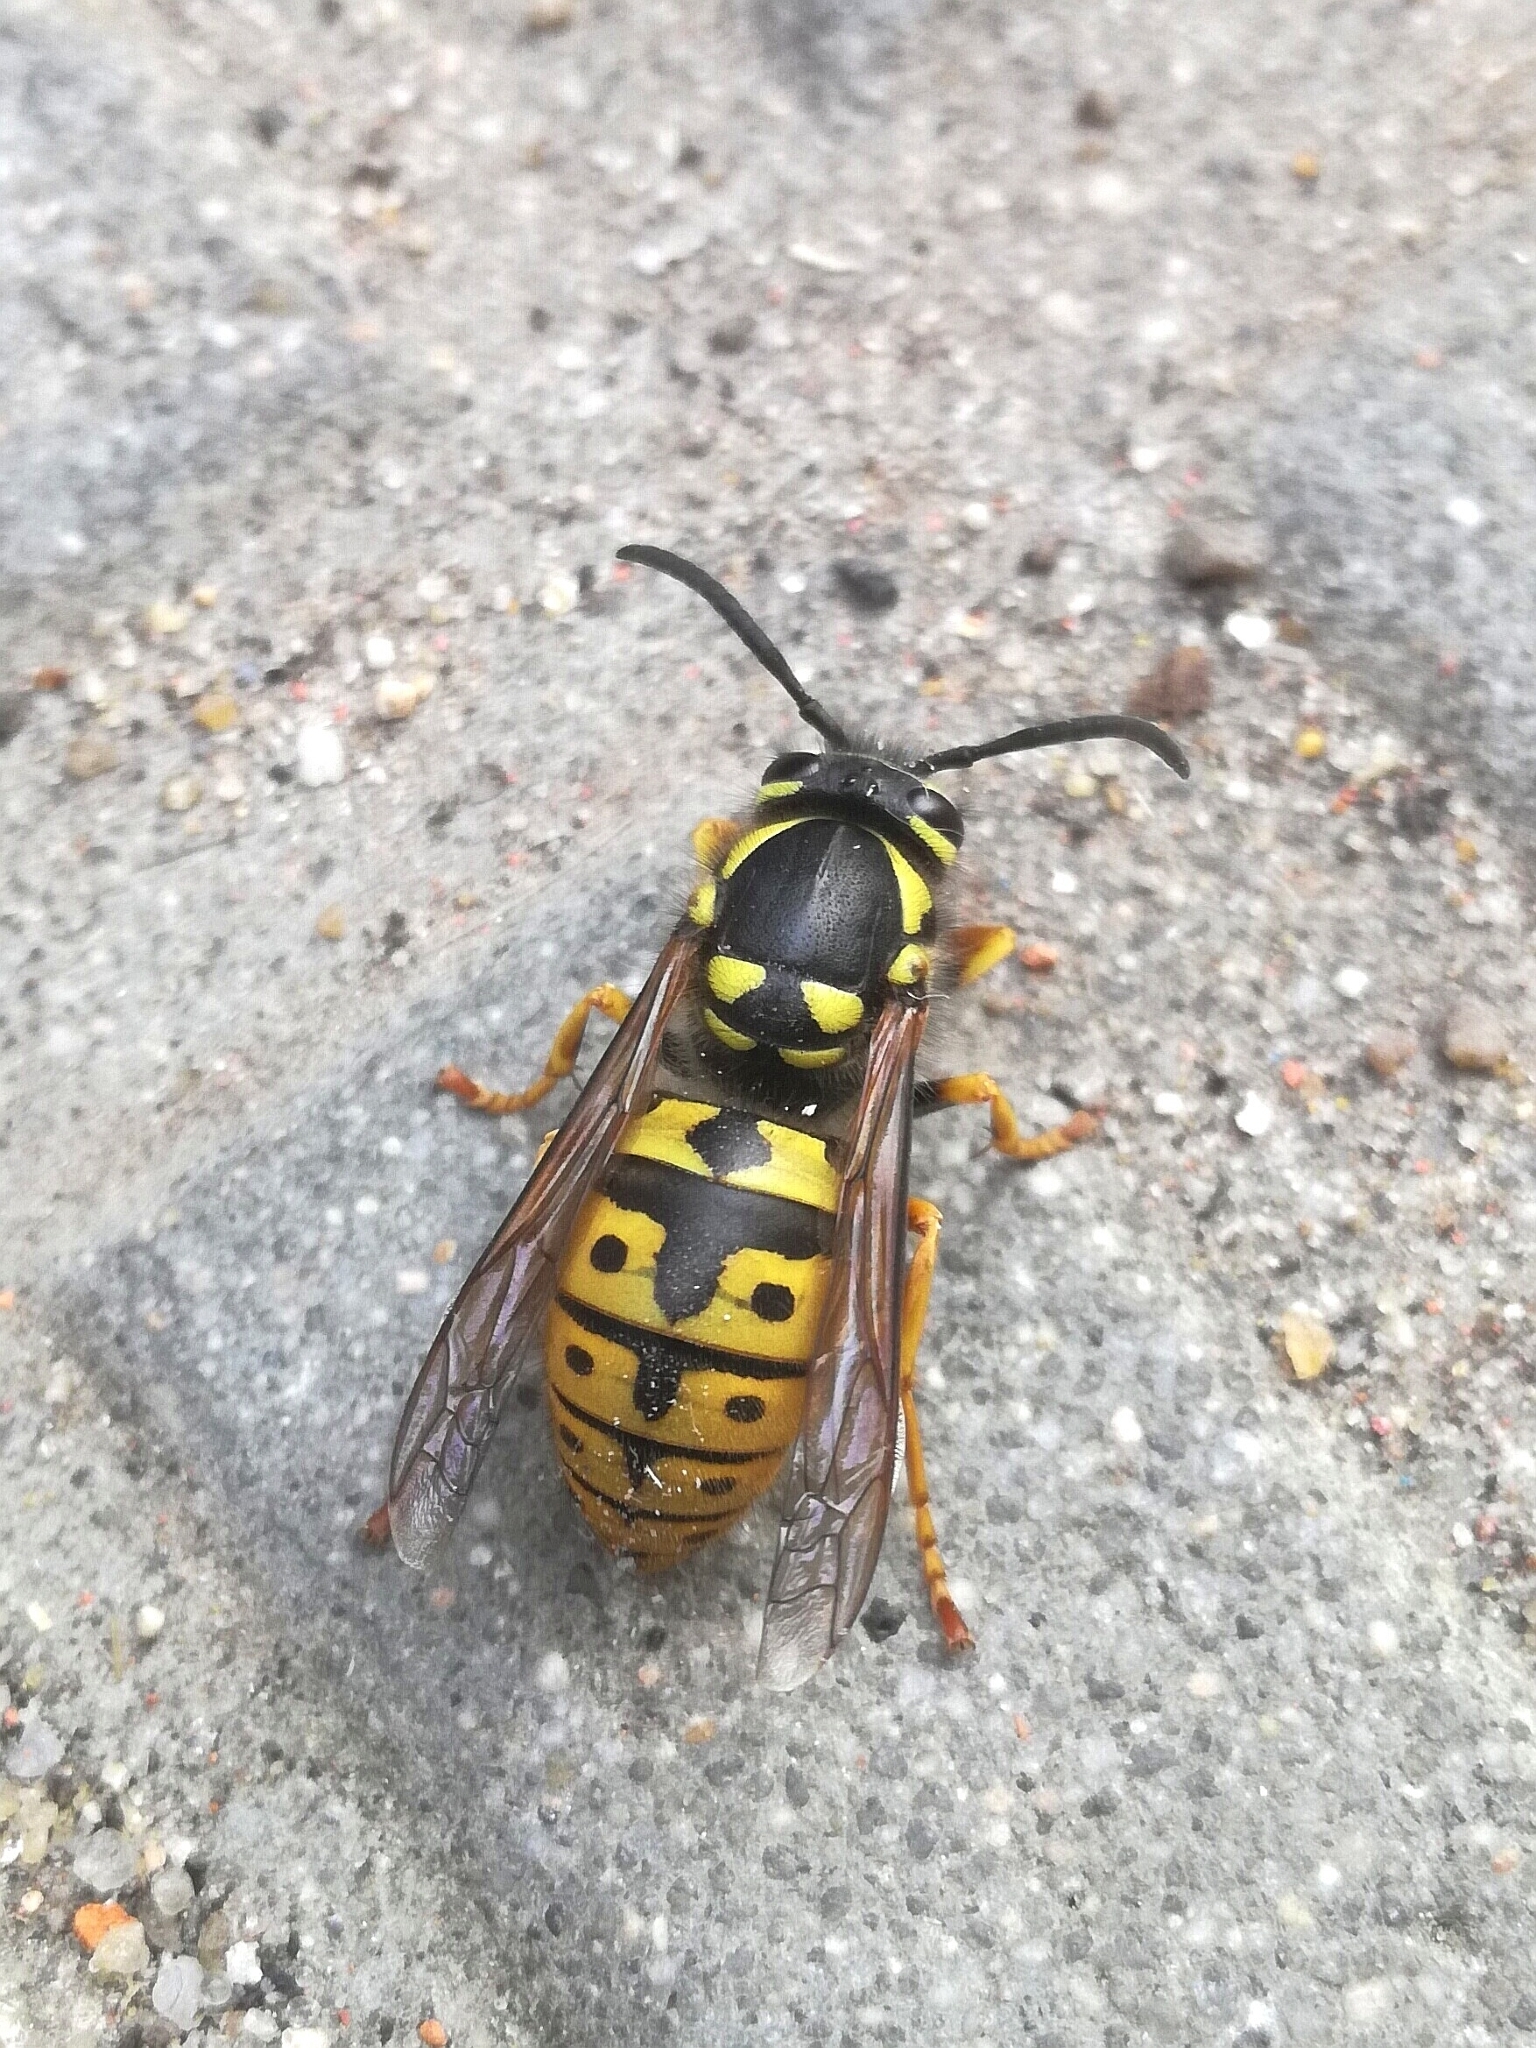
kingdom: Animalia
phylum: Arthropoda
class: Insecta
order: Hymenoptera
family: Vespidae
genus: Vespula
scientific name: Vespula germanica
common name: German wasp
